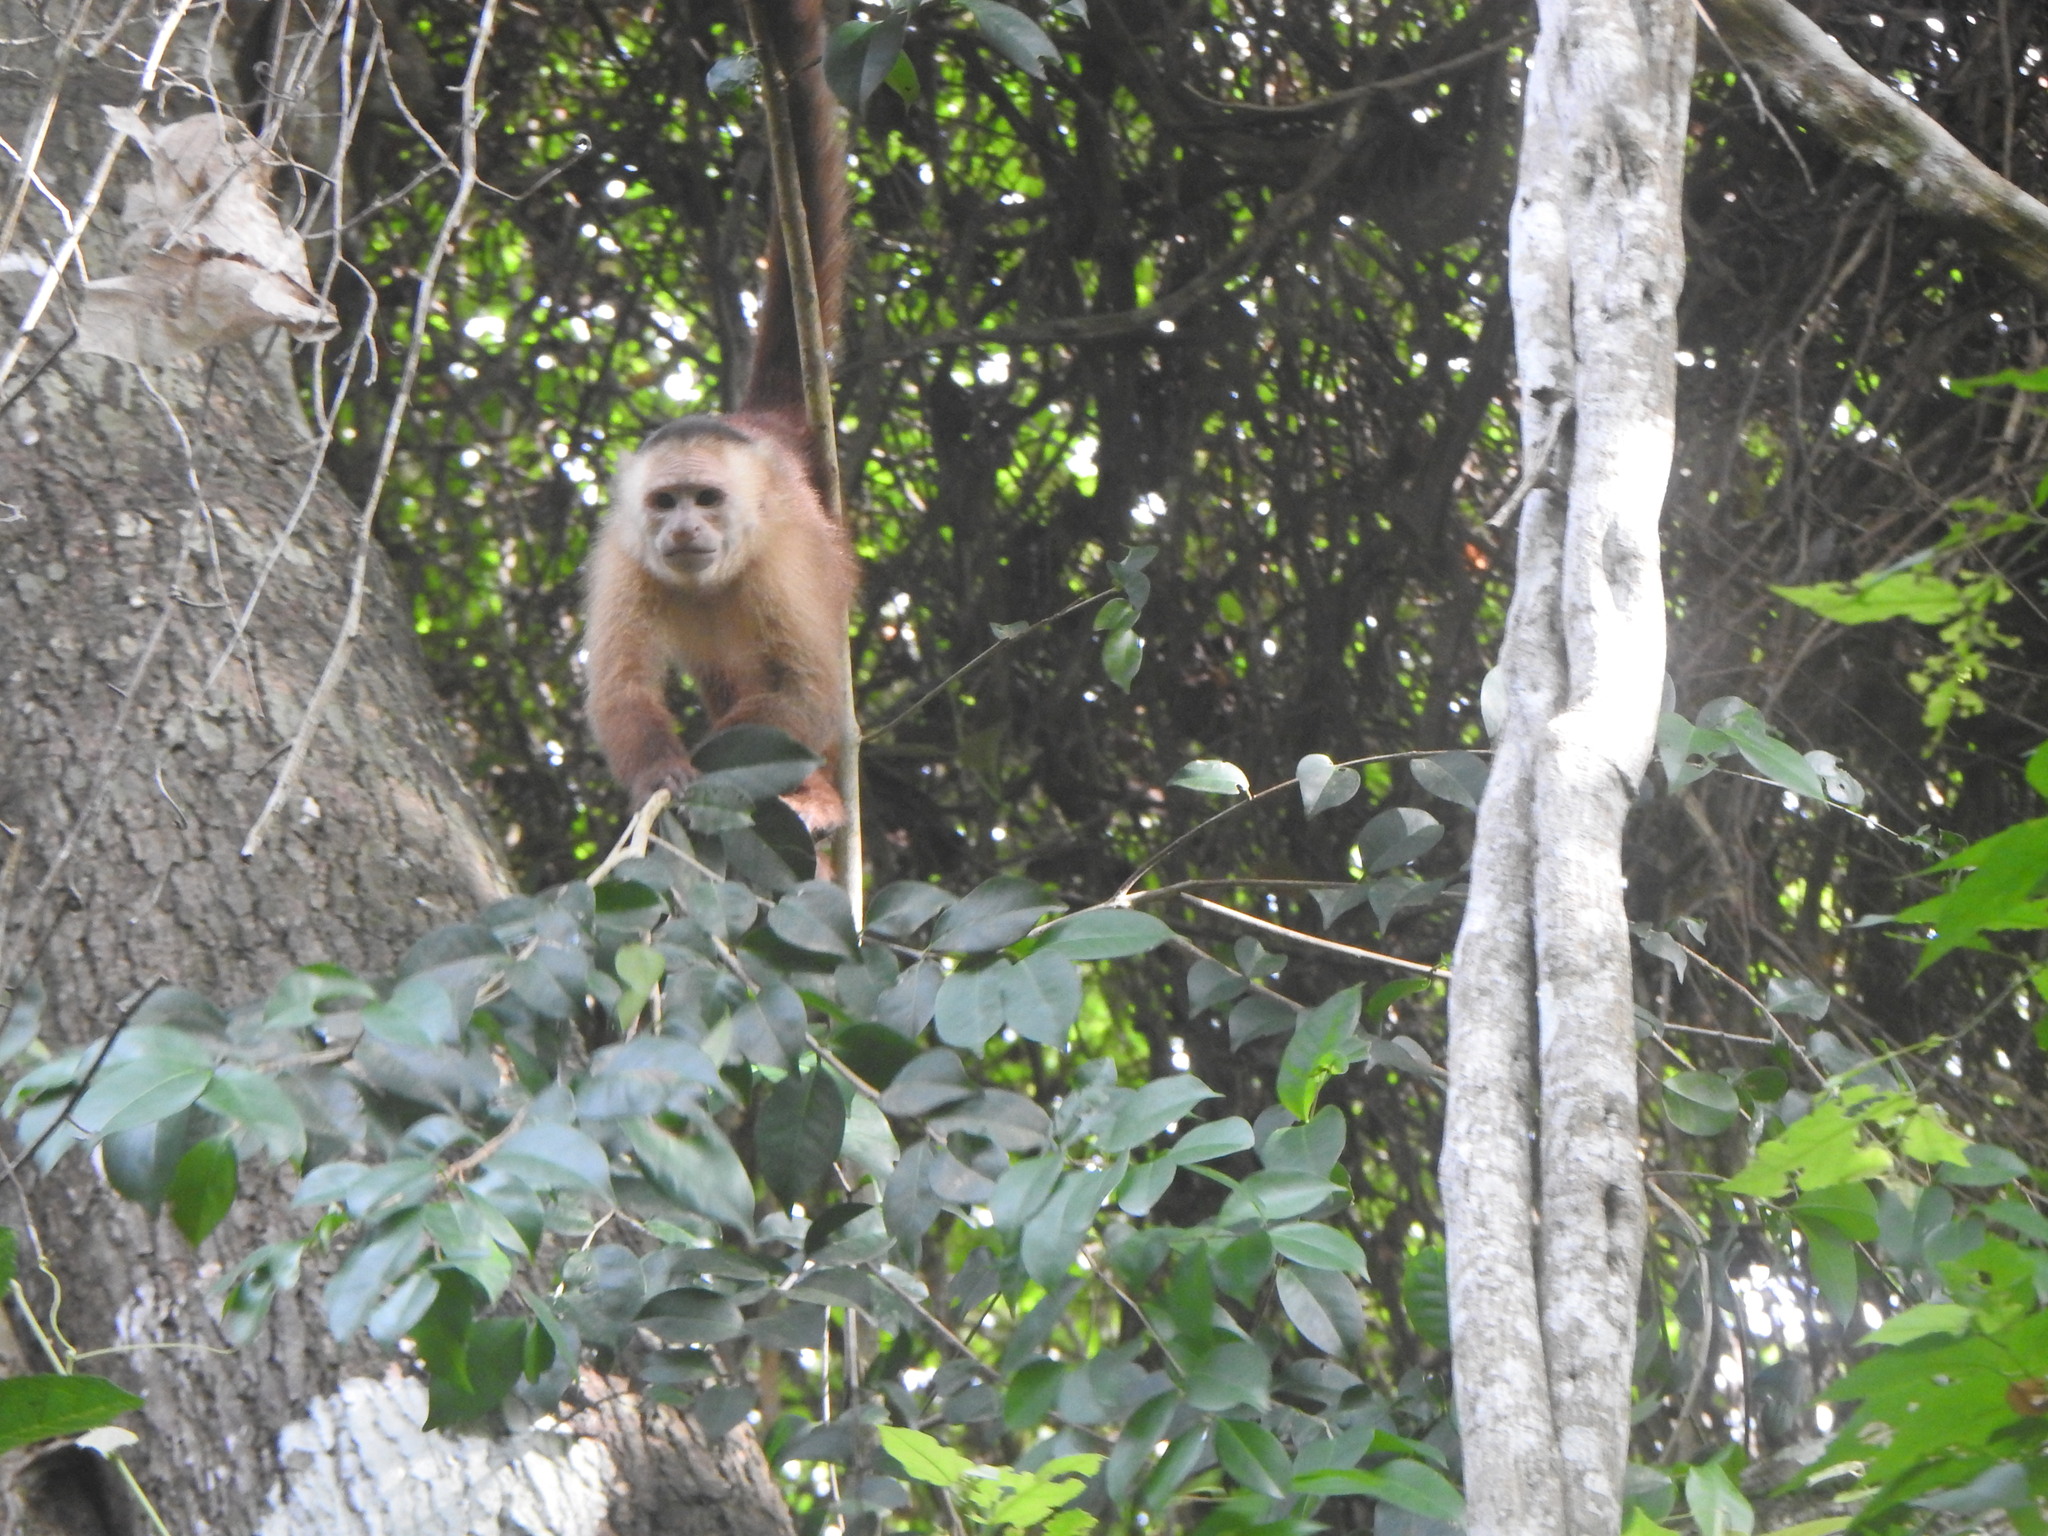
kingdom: Animalia
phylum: Chordata
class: Mammalia
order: Primates
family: Cebidae
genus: Cebus
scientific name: Cebus malitiosus
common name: Santa marta white-fronted capuchin
